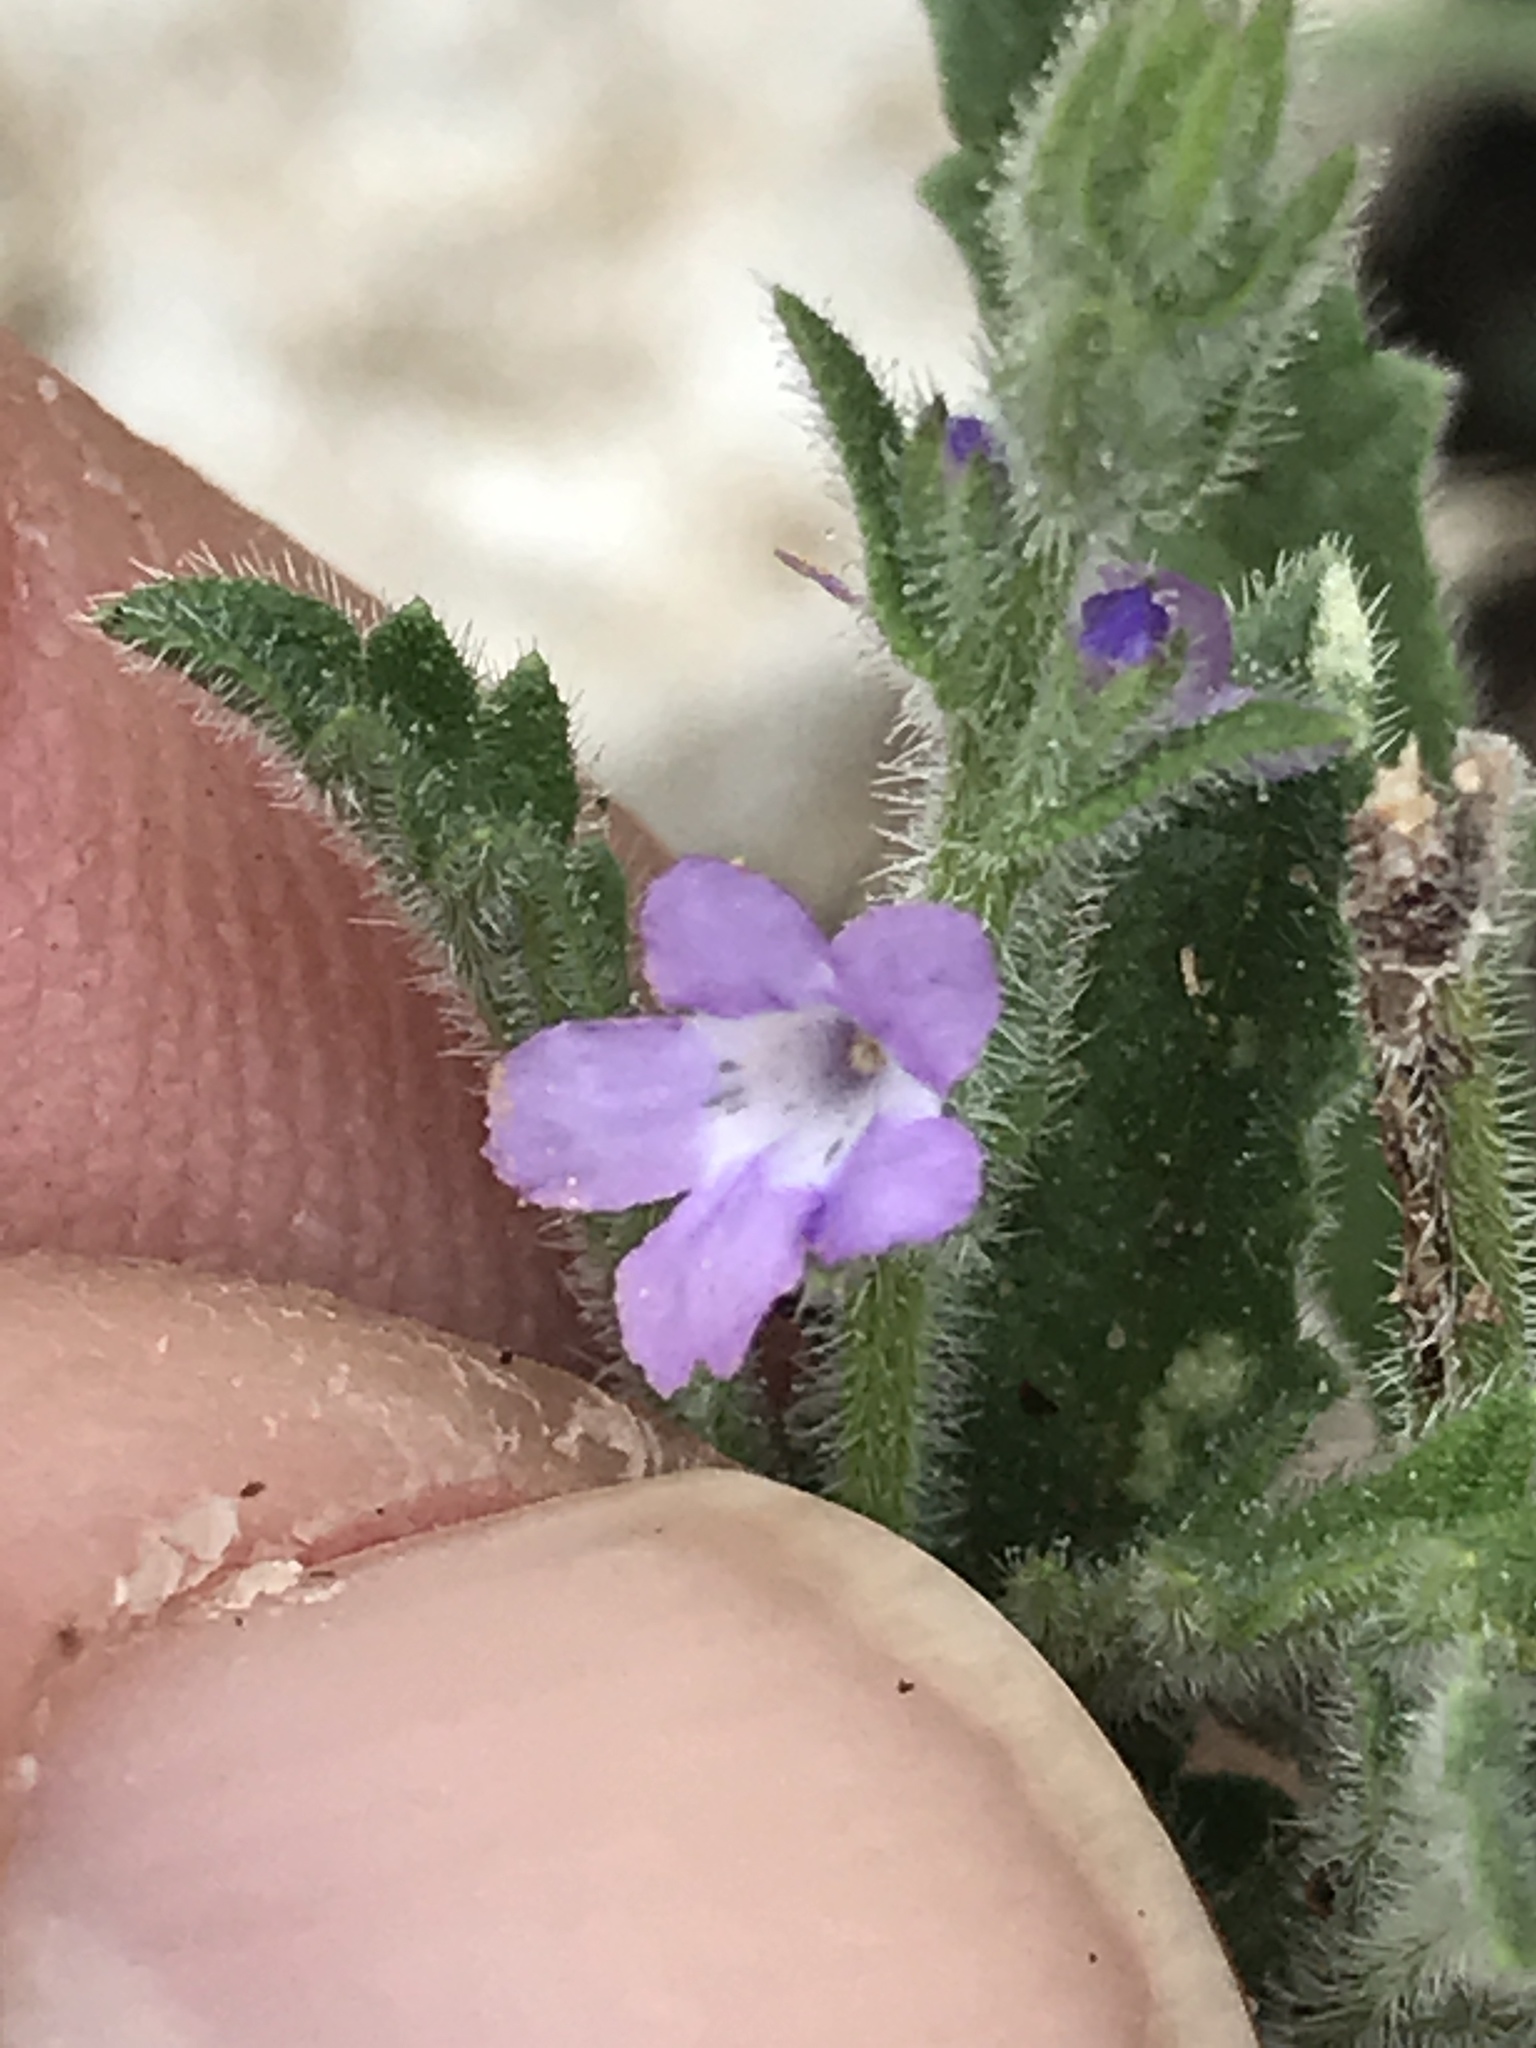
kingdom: Plantae
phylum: Tracheophyta
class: Magnoliopsida
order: Lamiales
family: Verbenaceae
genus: Verbena
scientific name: Verbena canescens
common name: Gray vervain
